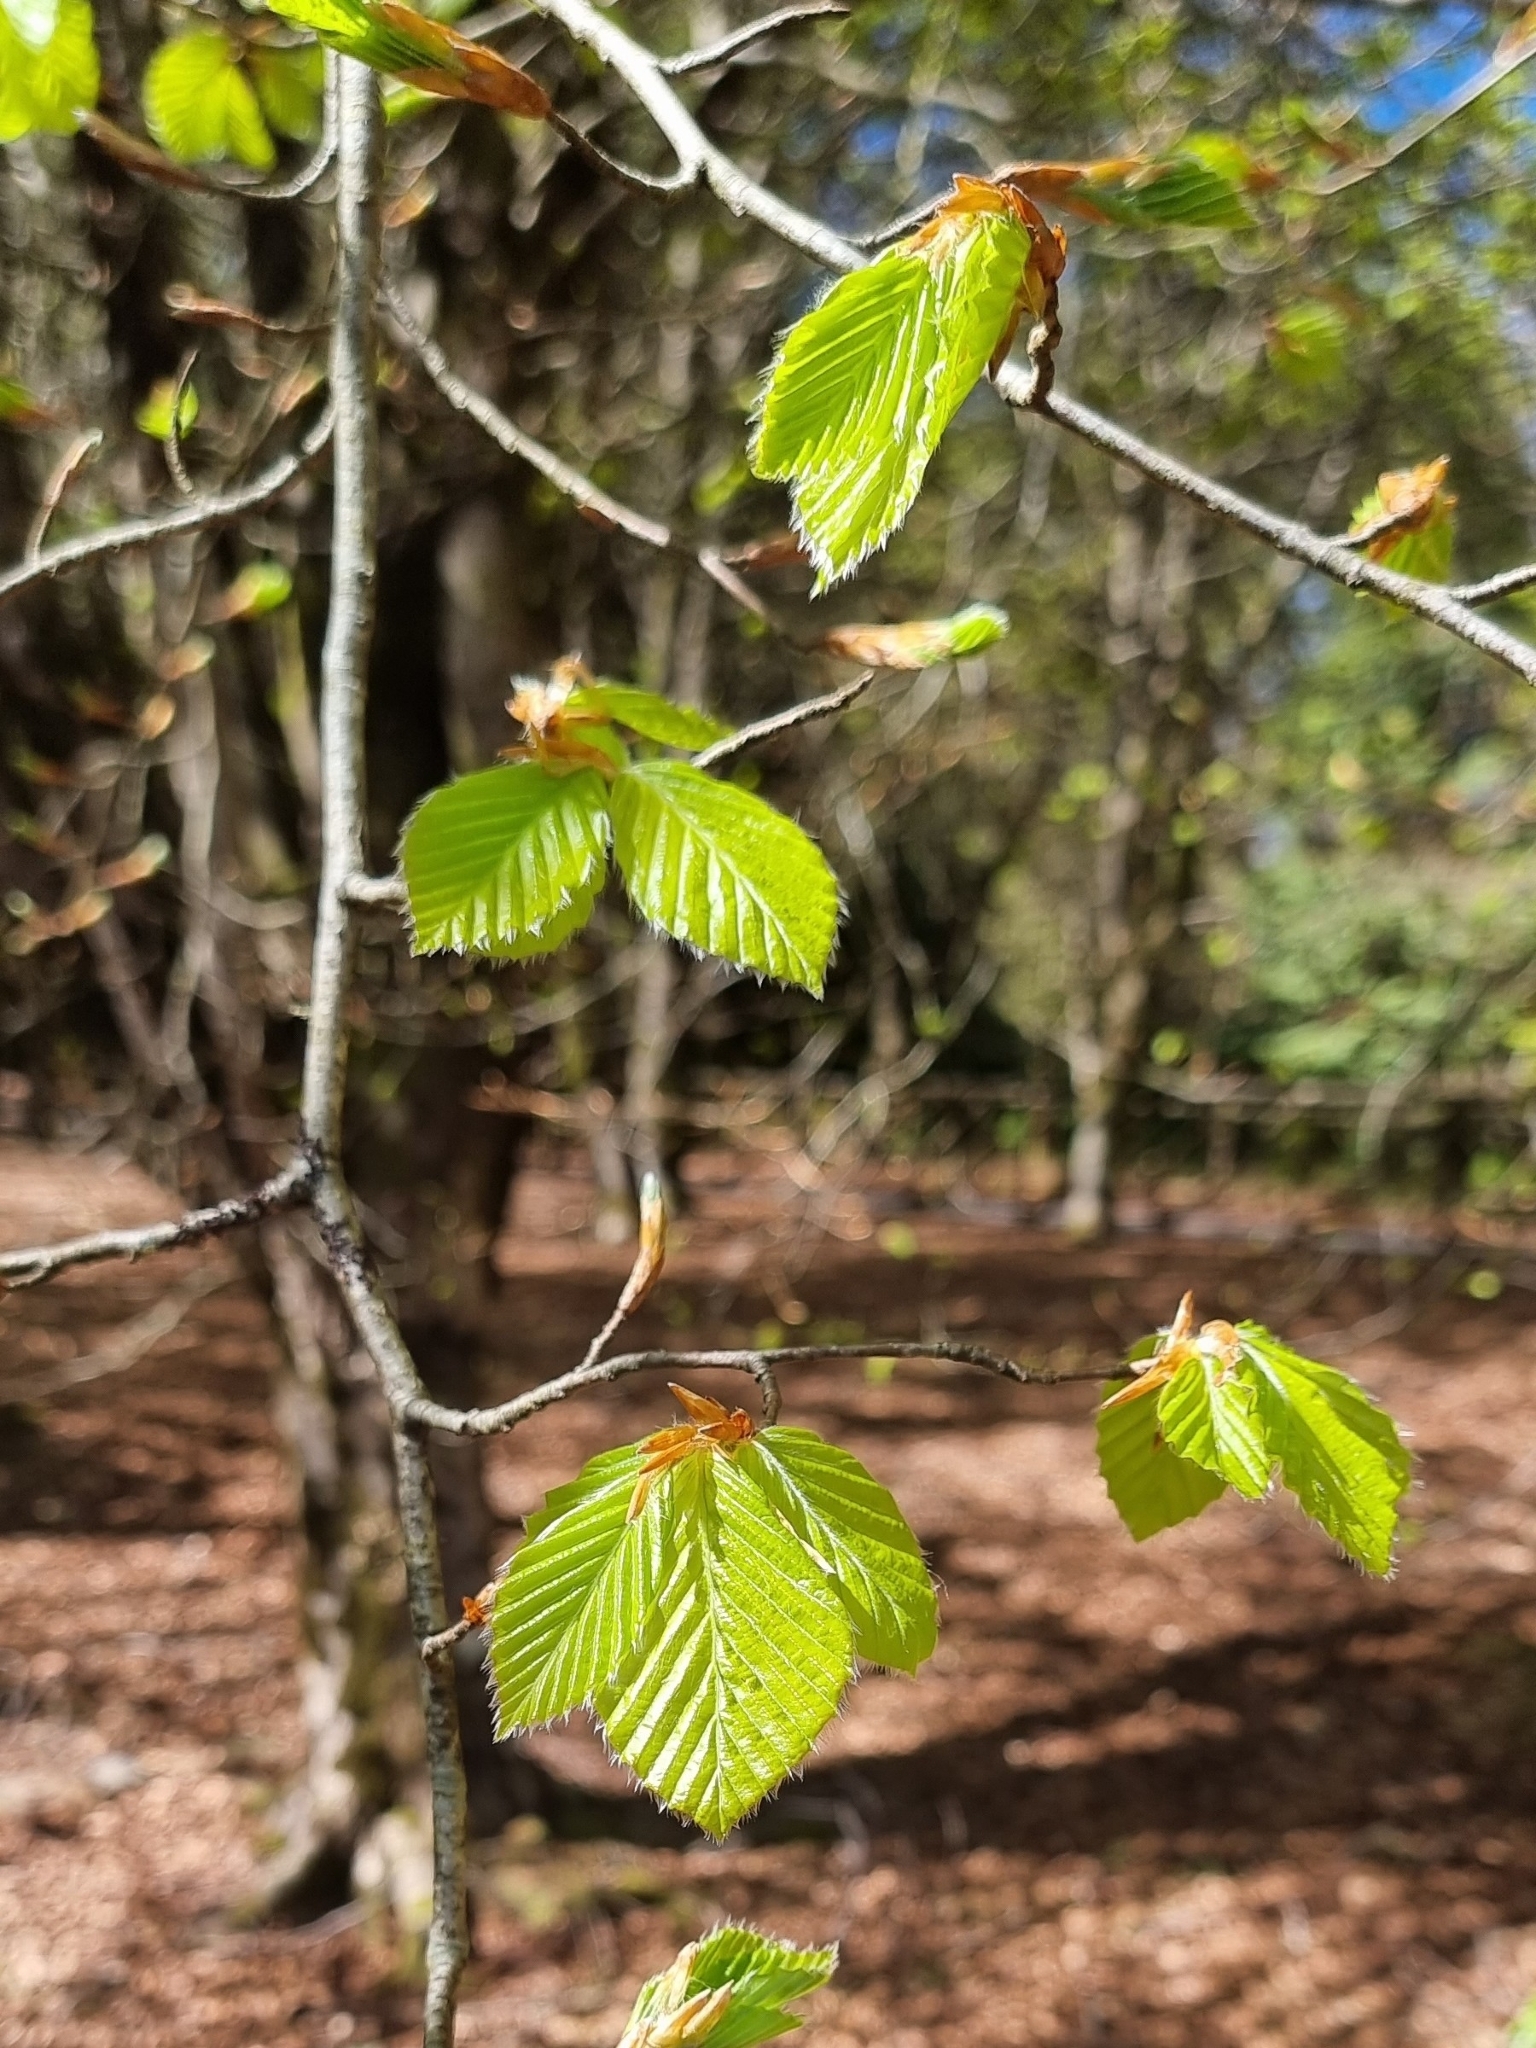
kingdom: Plantae
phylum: Tracheophyta
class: Magnoliopsida
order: Fagales
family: Fagaceae
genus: Fagus
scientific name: Fagus sylvatica
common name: Beech
